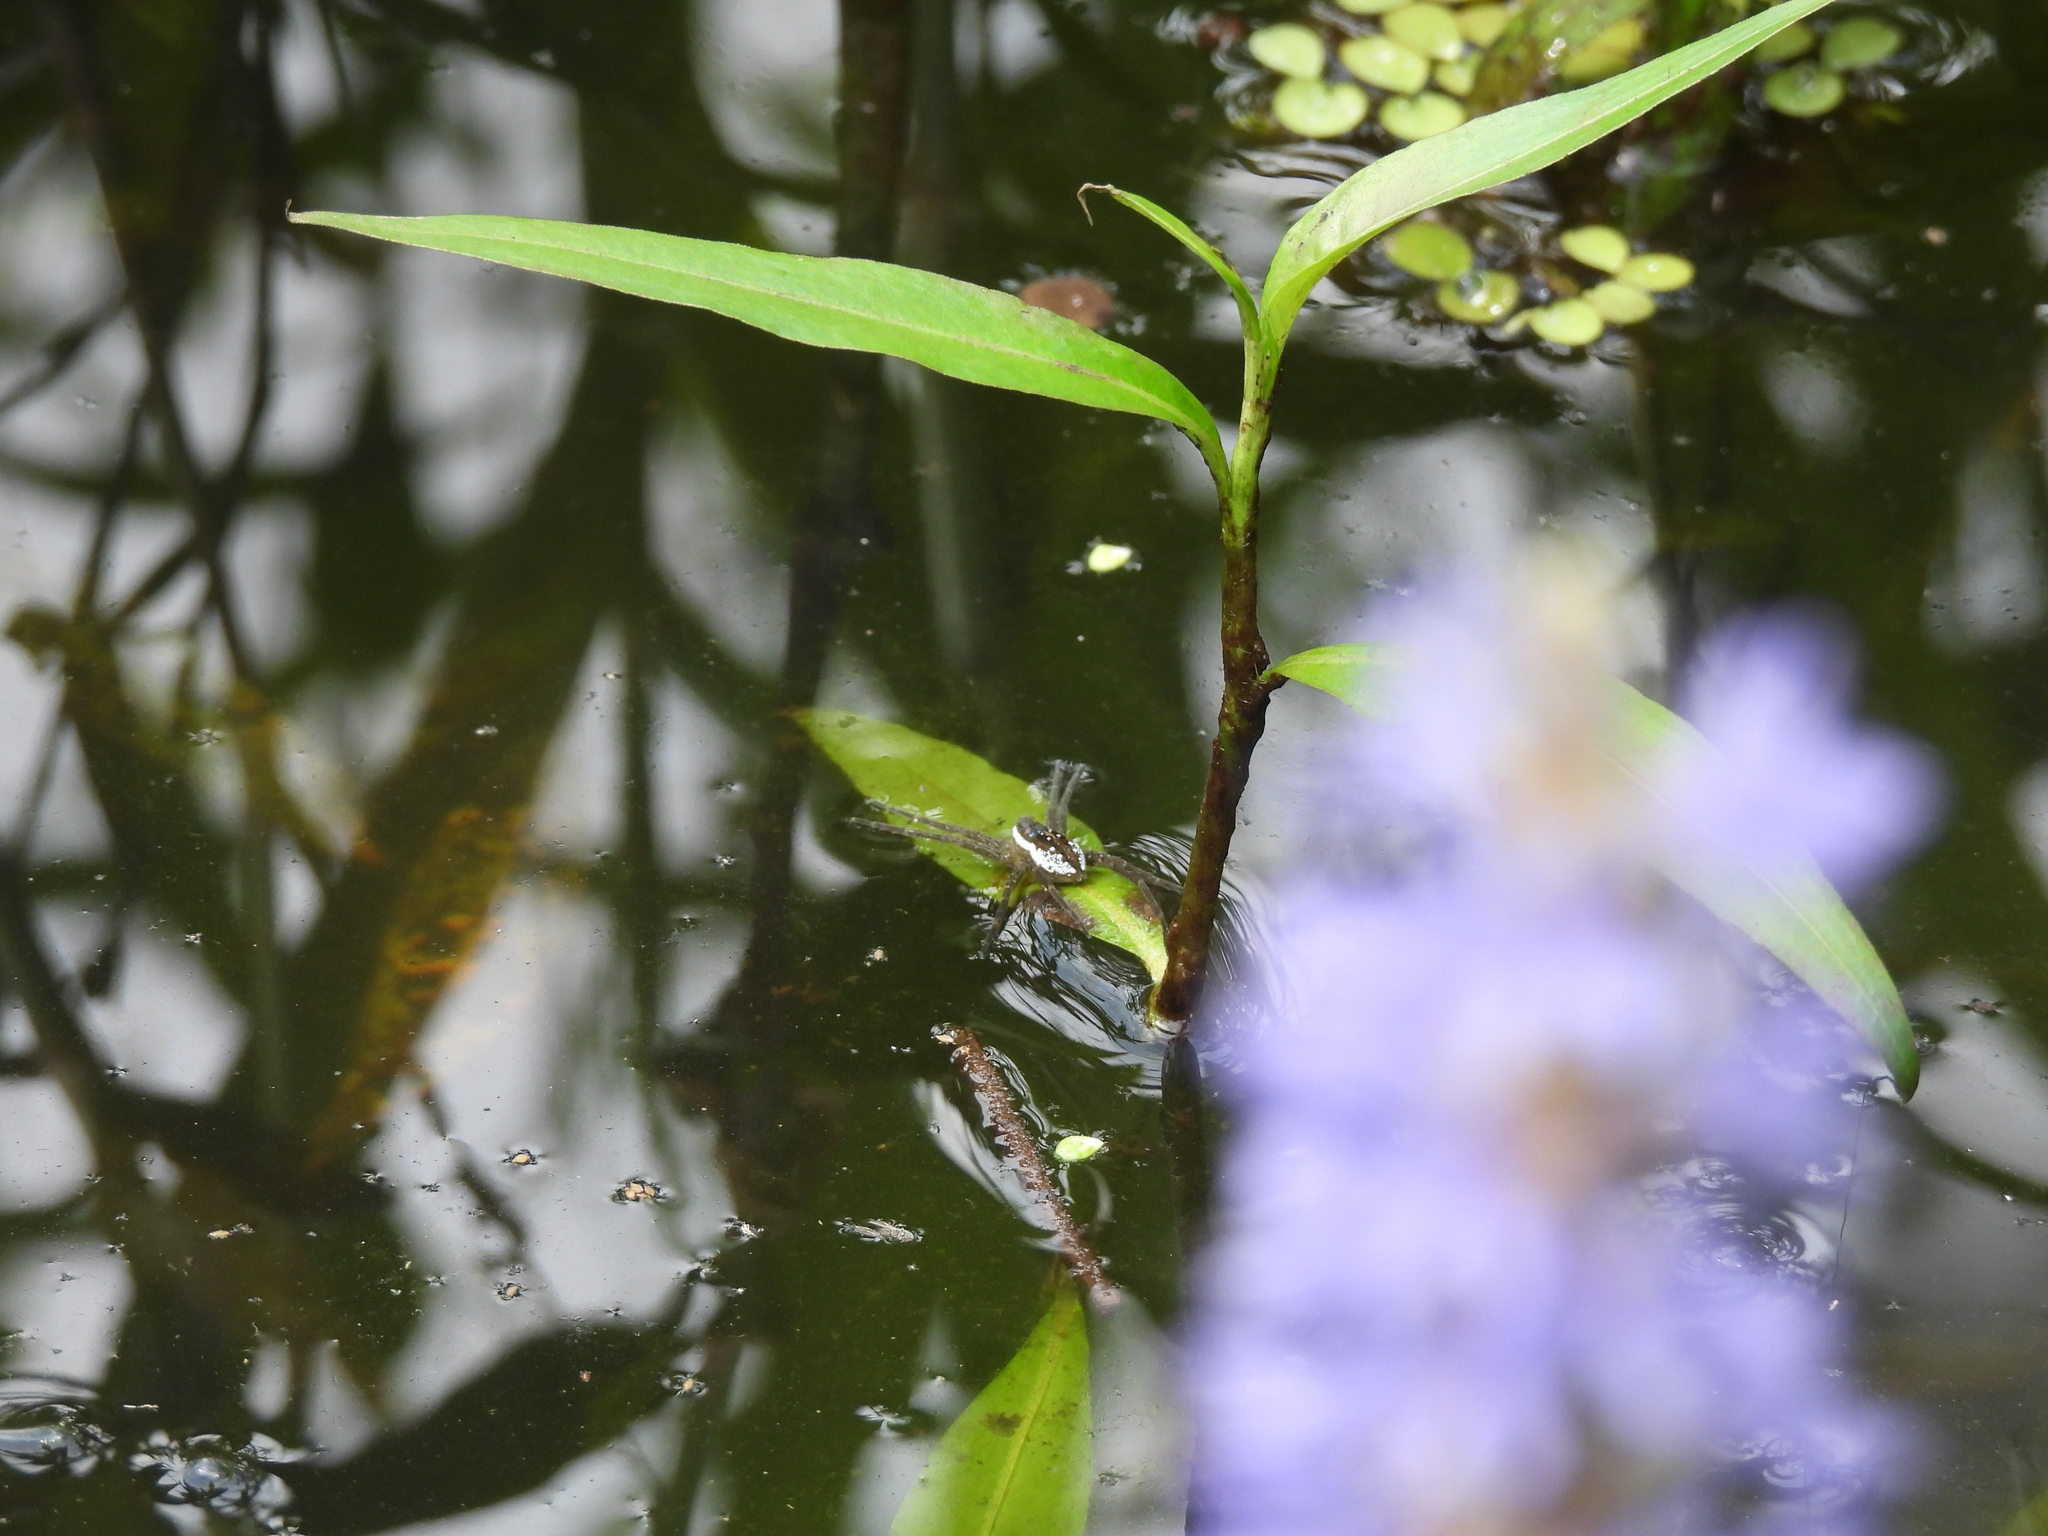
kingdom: Animalia
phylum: Arthropoda
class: Arachnida
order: Araneae
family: Pisauridae
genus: Dolomedes
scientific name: Dolomedes triton
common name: Six-spotted fishing spider
